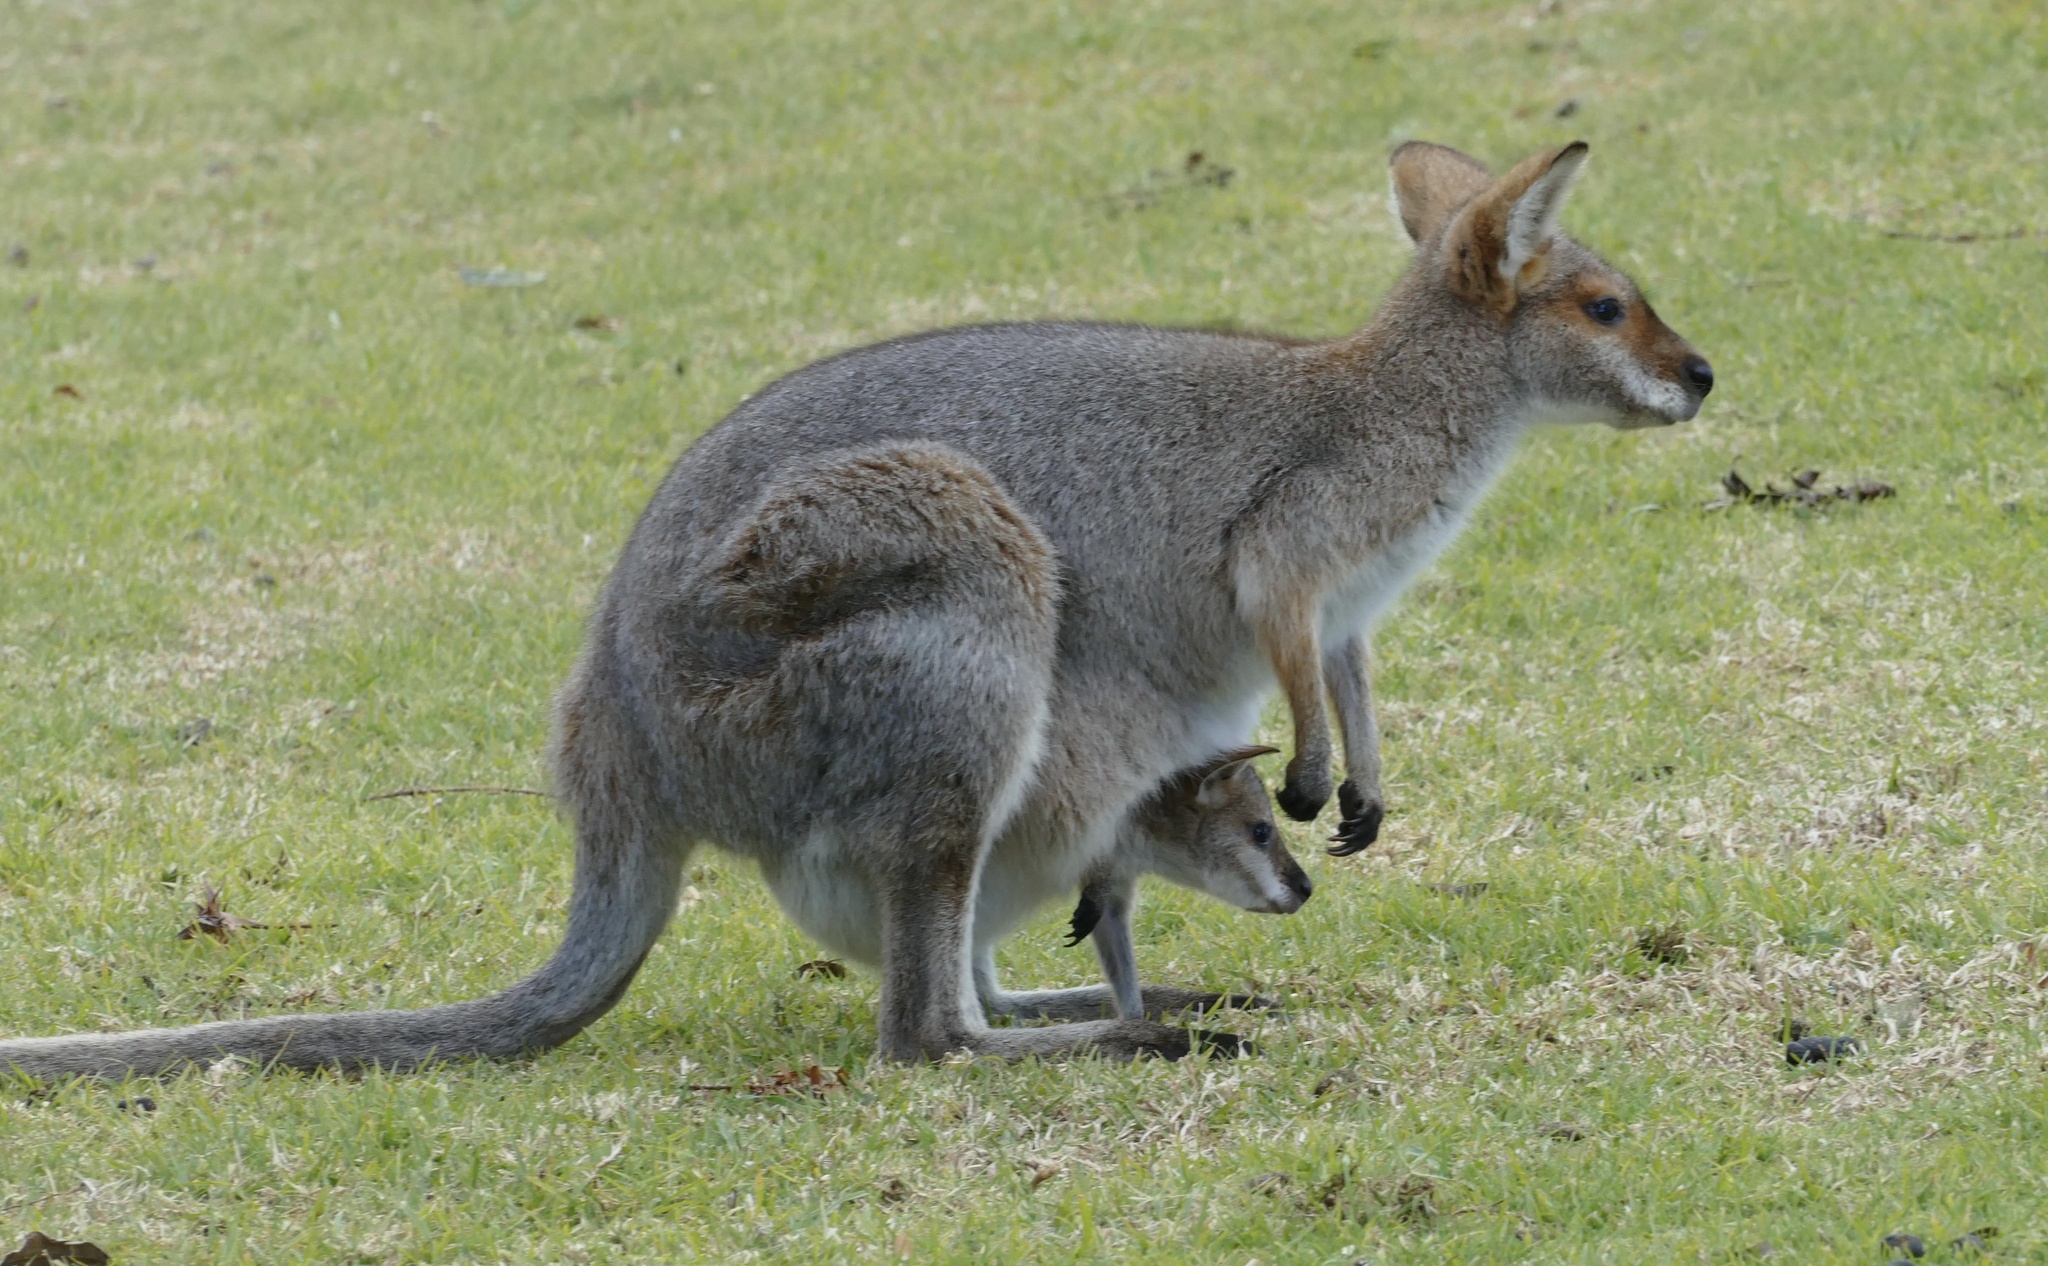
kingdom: Animalia
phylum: Chordata
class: Mammalia
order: Diprotodontia
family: Macropodidae
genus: Notamacropus
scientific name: Notamacropus rufogriseus
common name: Red-necked wallaby
